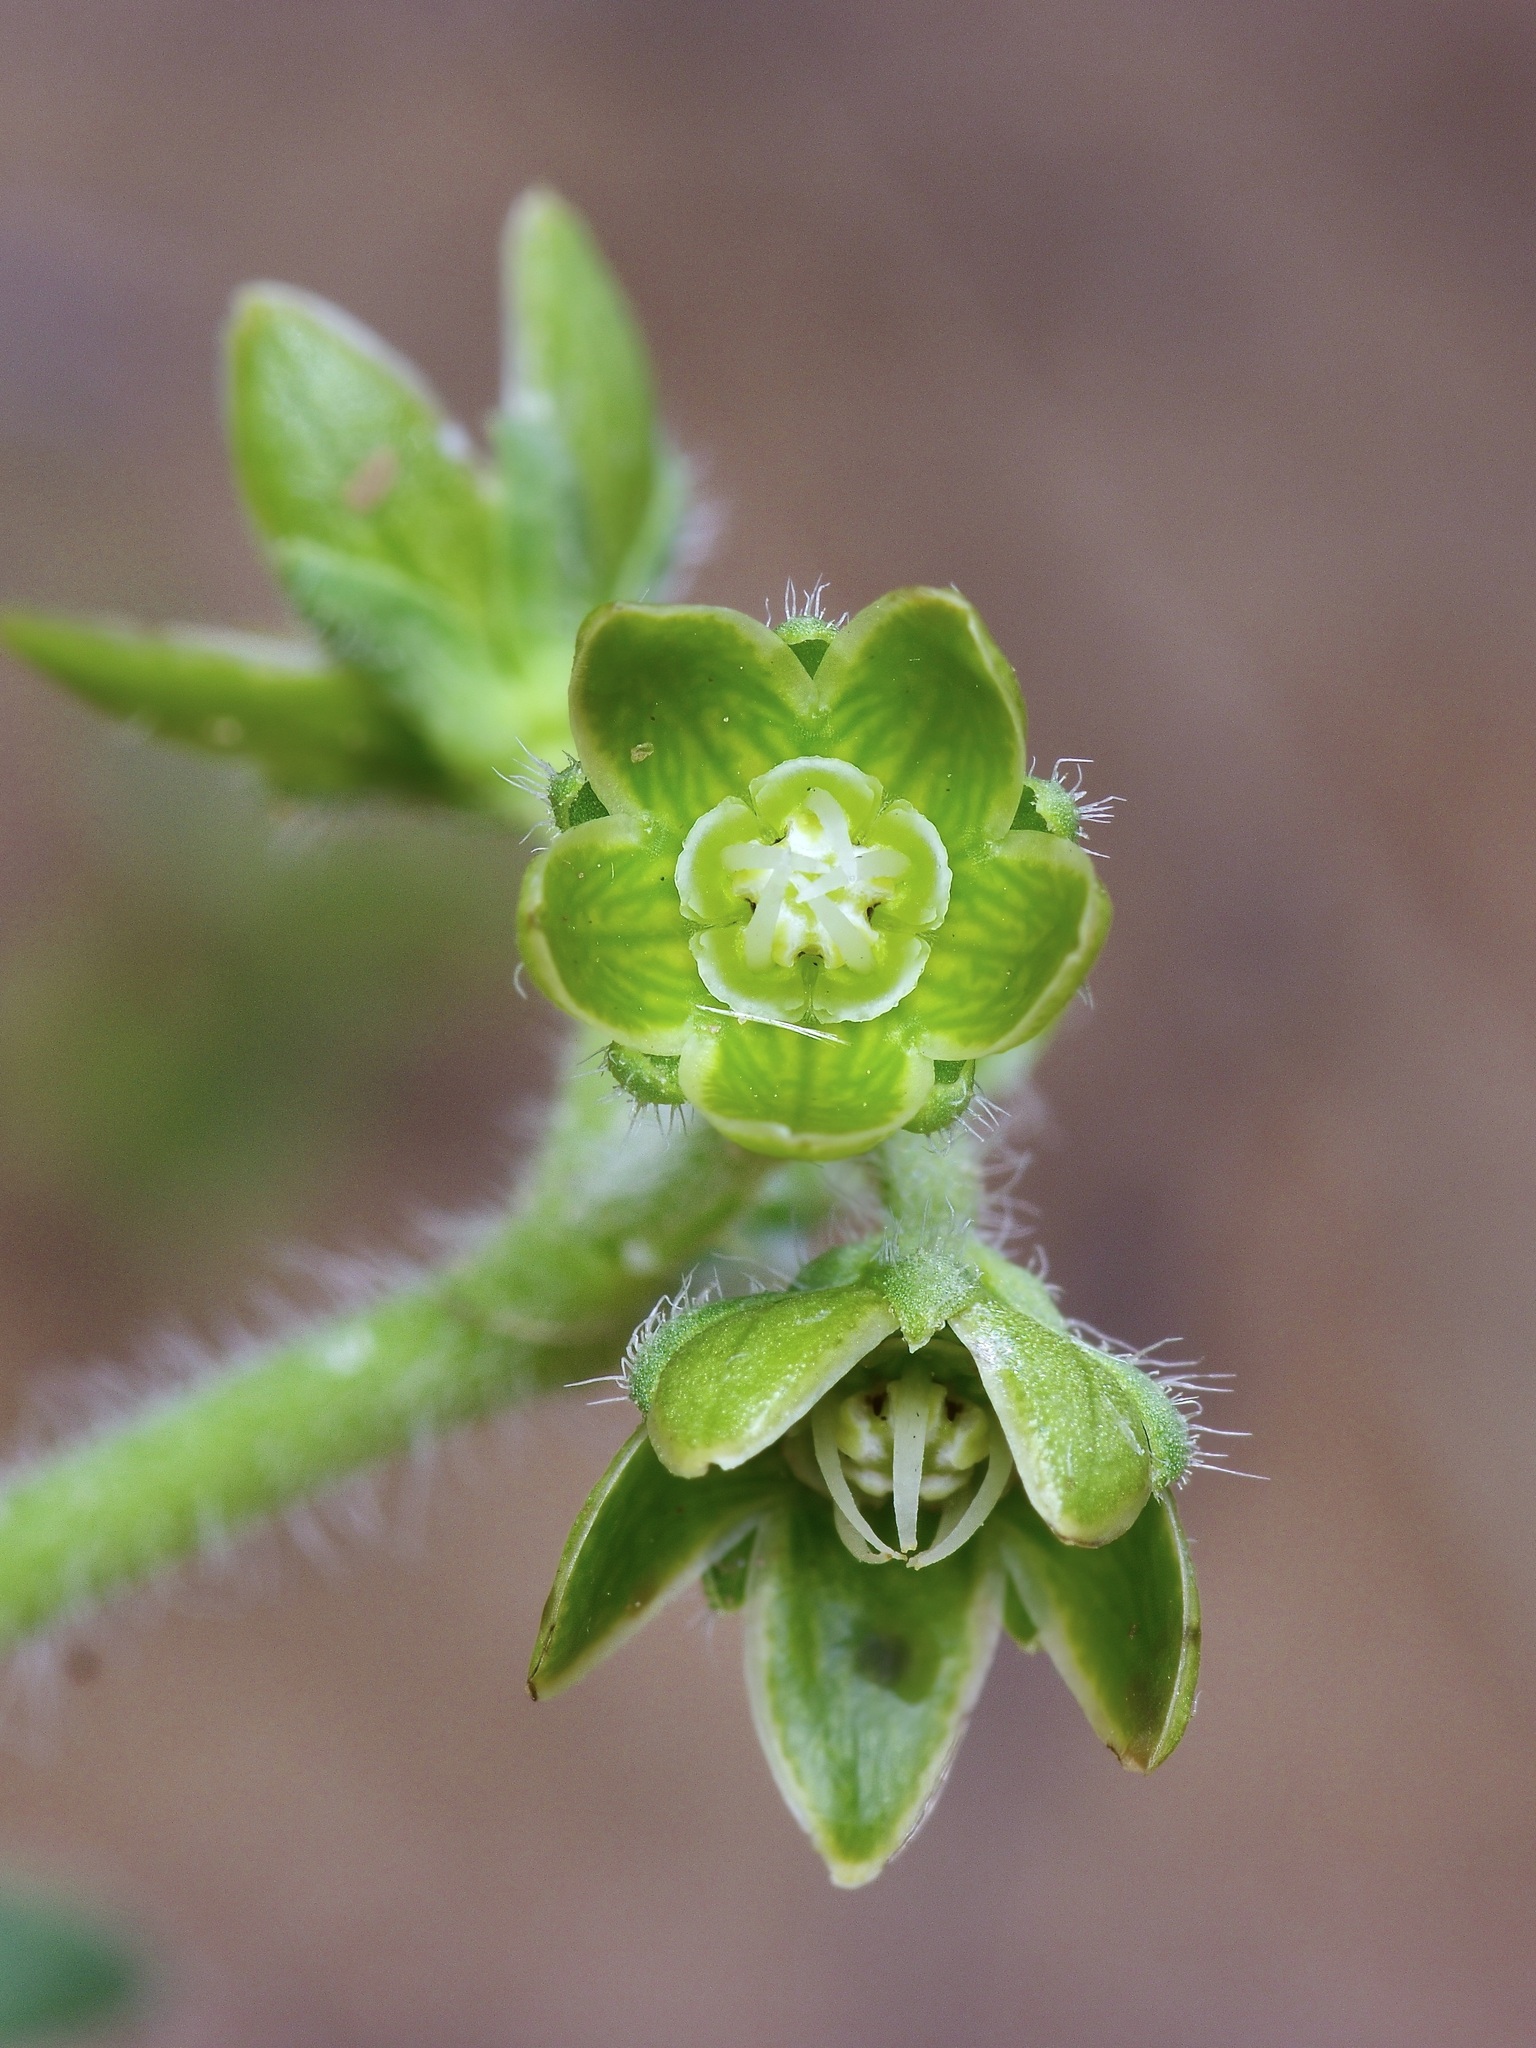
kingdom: Plantae
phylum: Tracheophyta
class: Magnoliopsida
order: Gentianales
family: Apocynaceae
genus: Matelea
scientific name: Matelea brevicoronata
